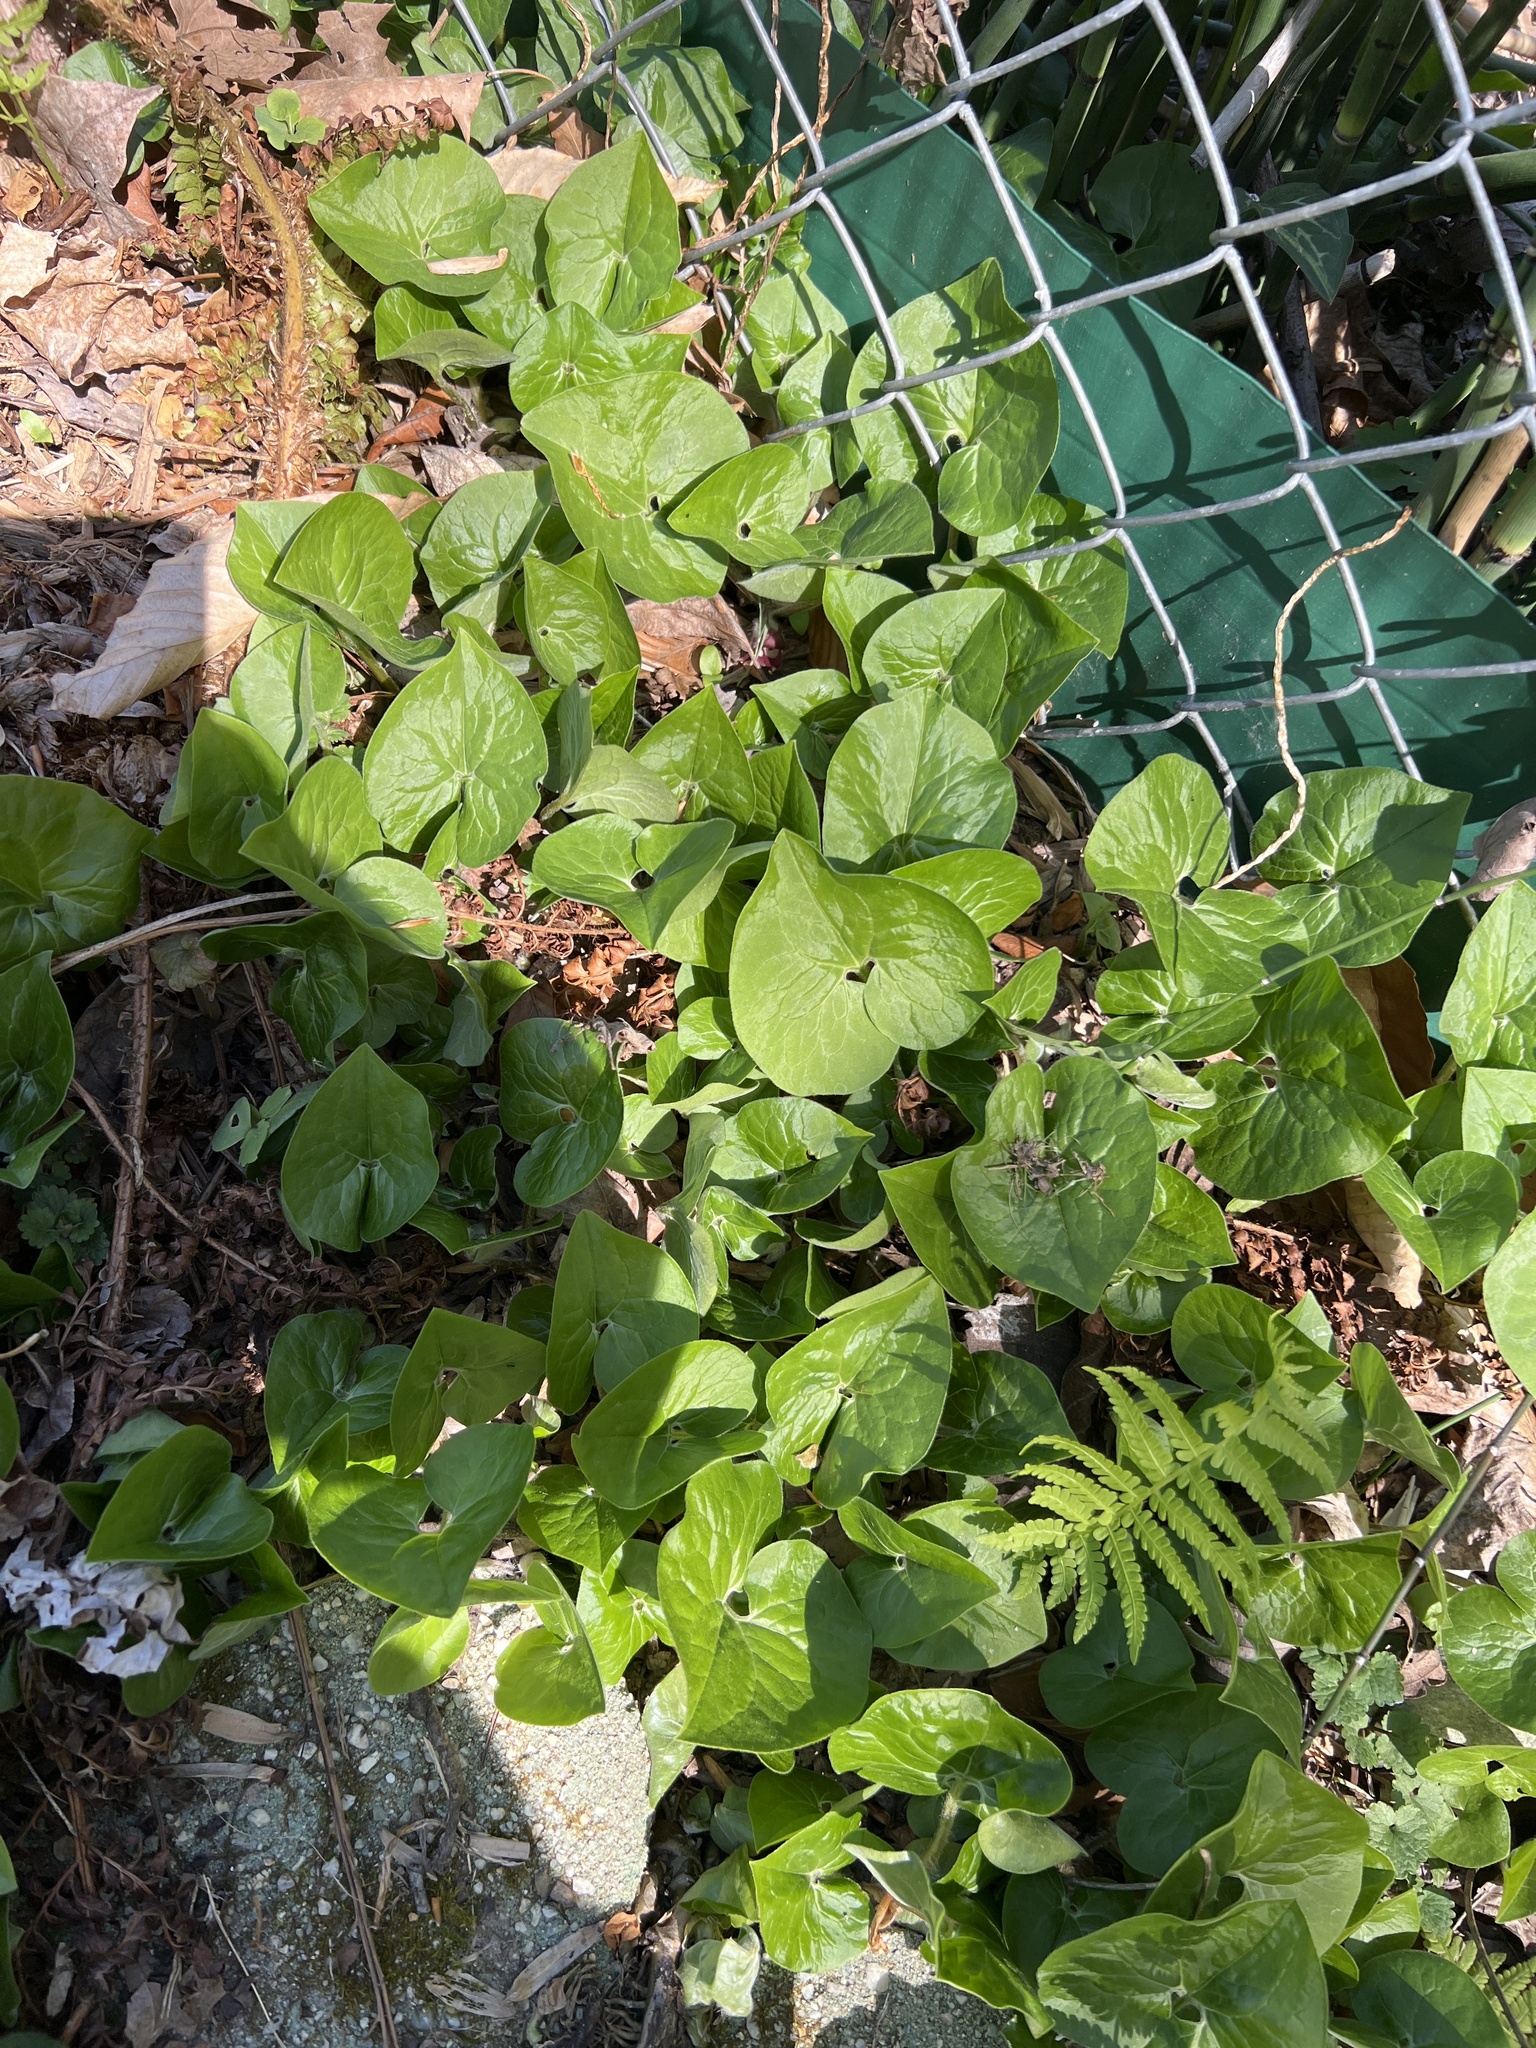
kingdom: Plantae
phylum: Tracheophyta
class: Magnoliopsida
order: Piperales
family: Aristolochiaceae
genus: Asarum
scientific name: Asarum canadense
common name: Wild ginger
